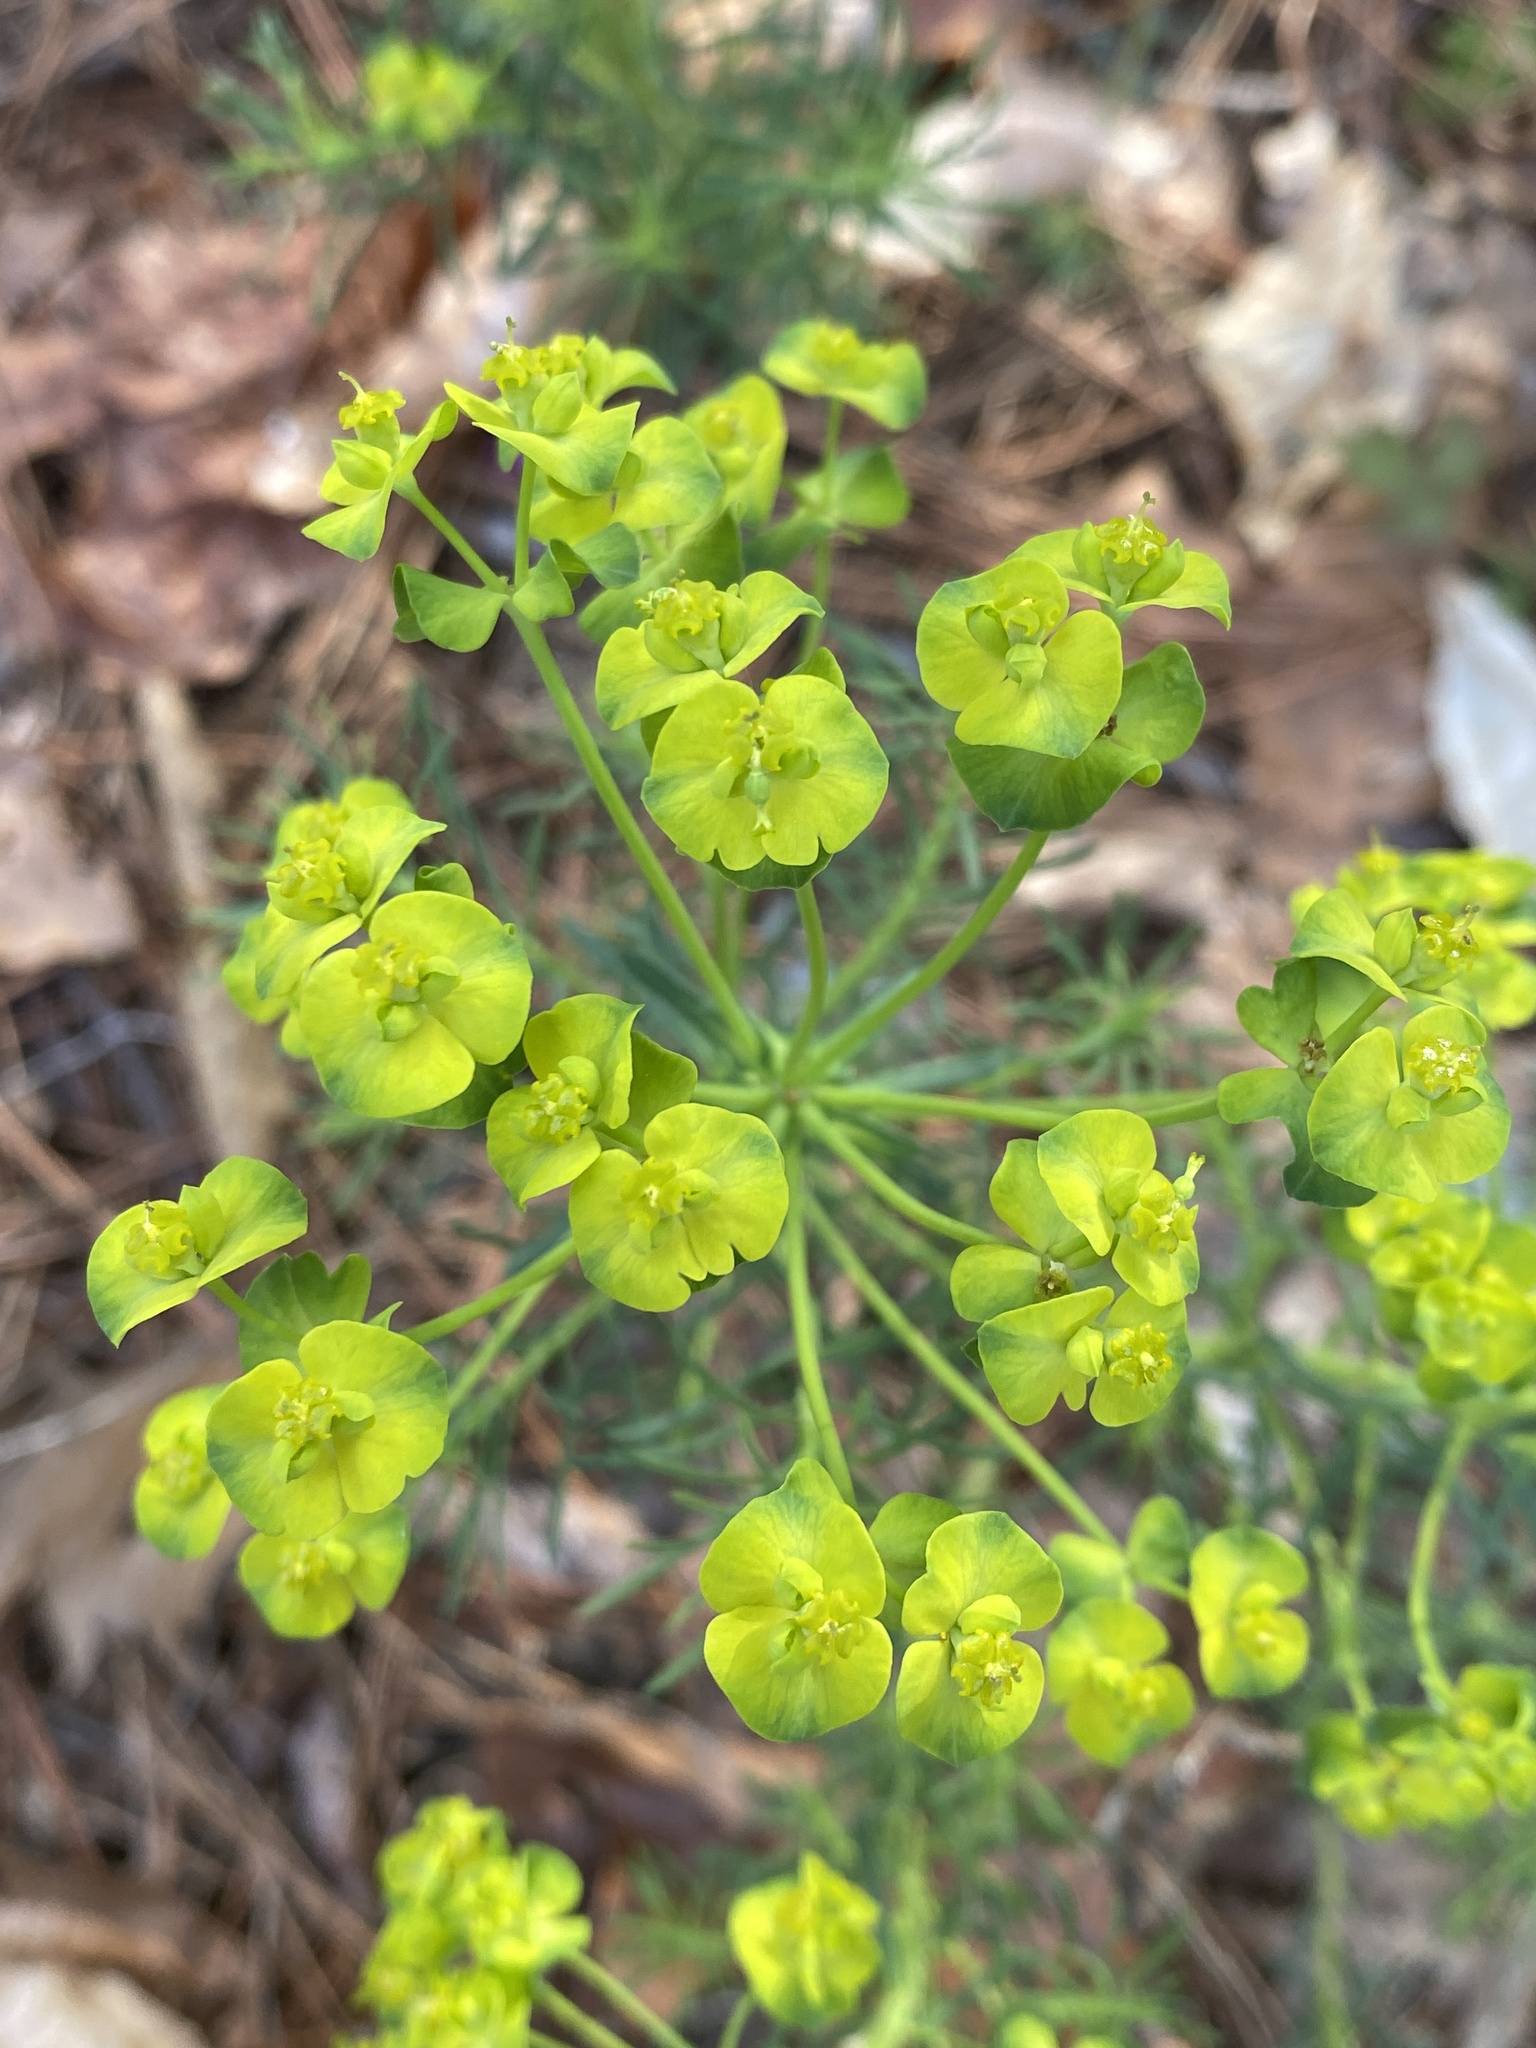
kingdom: Plantae
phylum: Tracheophyta
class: Magnoliopsida
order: Malpighiales
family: Euphorbiaceae
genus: Euphorbia
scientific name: Euphorbia cyparissias
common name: Cypress spurge
